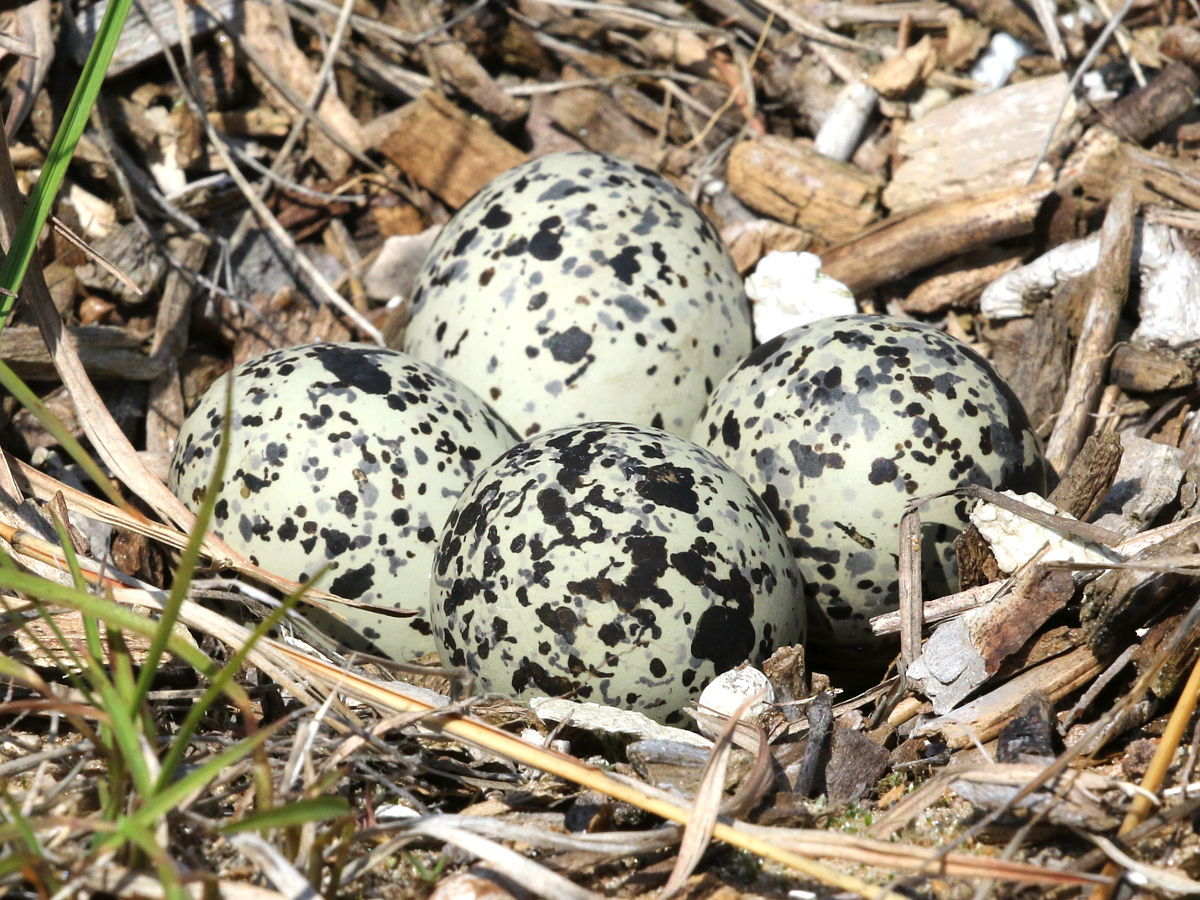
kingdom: Animalia
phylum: Chordata
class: Aves
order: Charadriiformes
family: Charadriidae
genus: Charadrius
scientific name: Charadrius vociferus
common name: Killdeer
